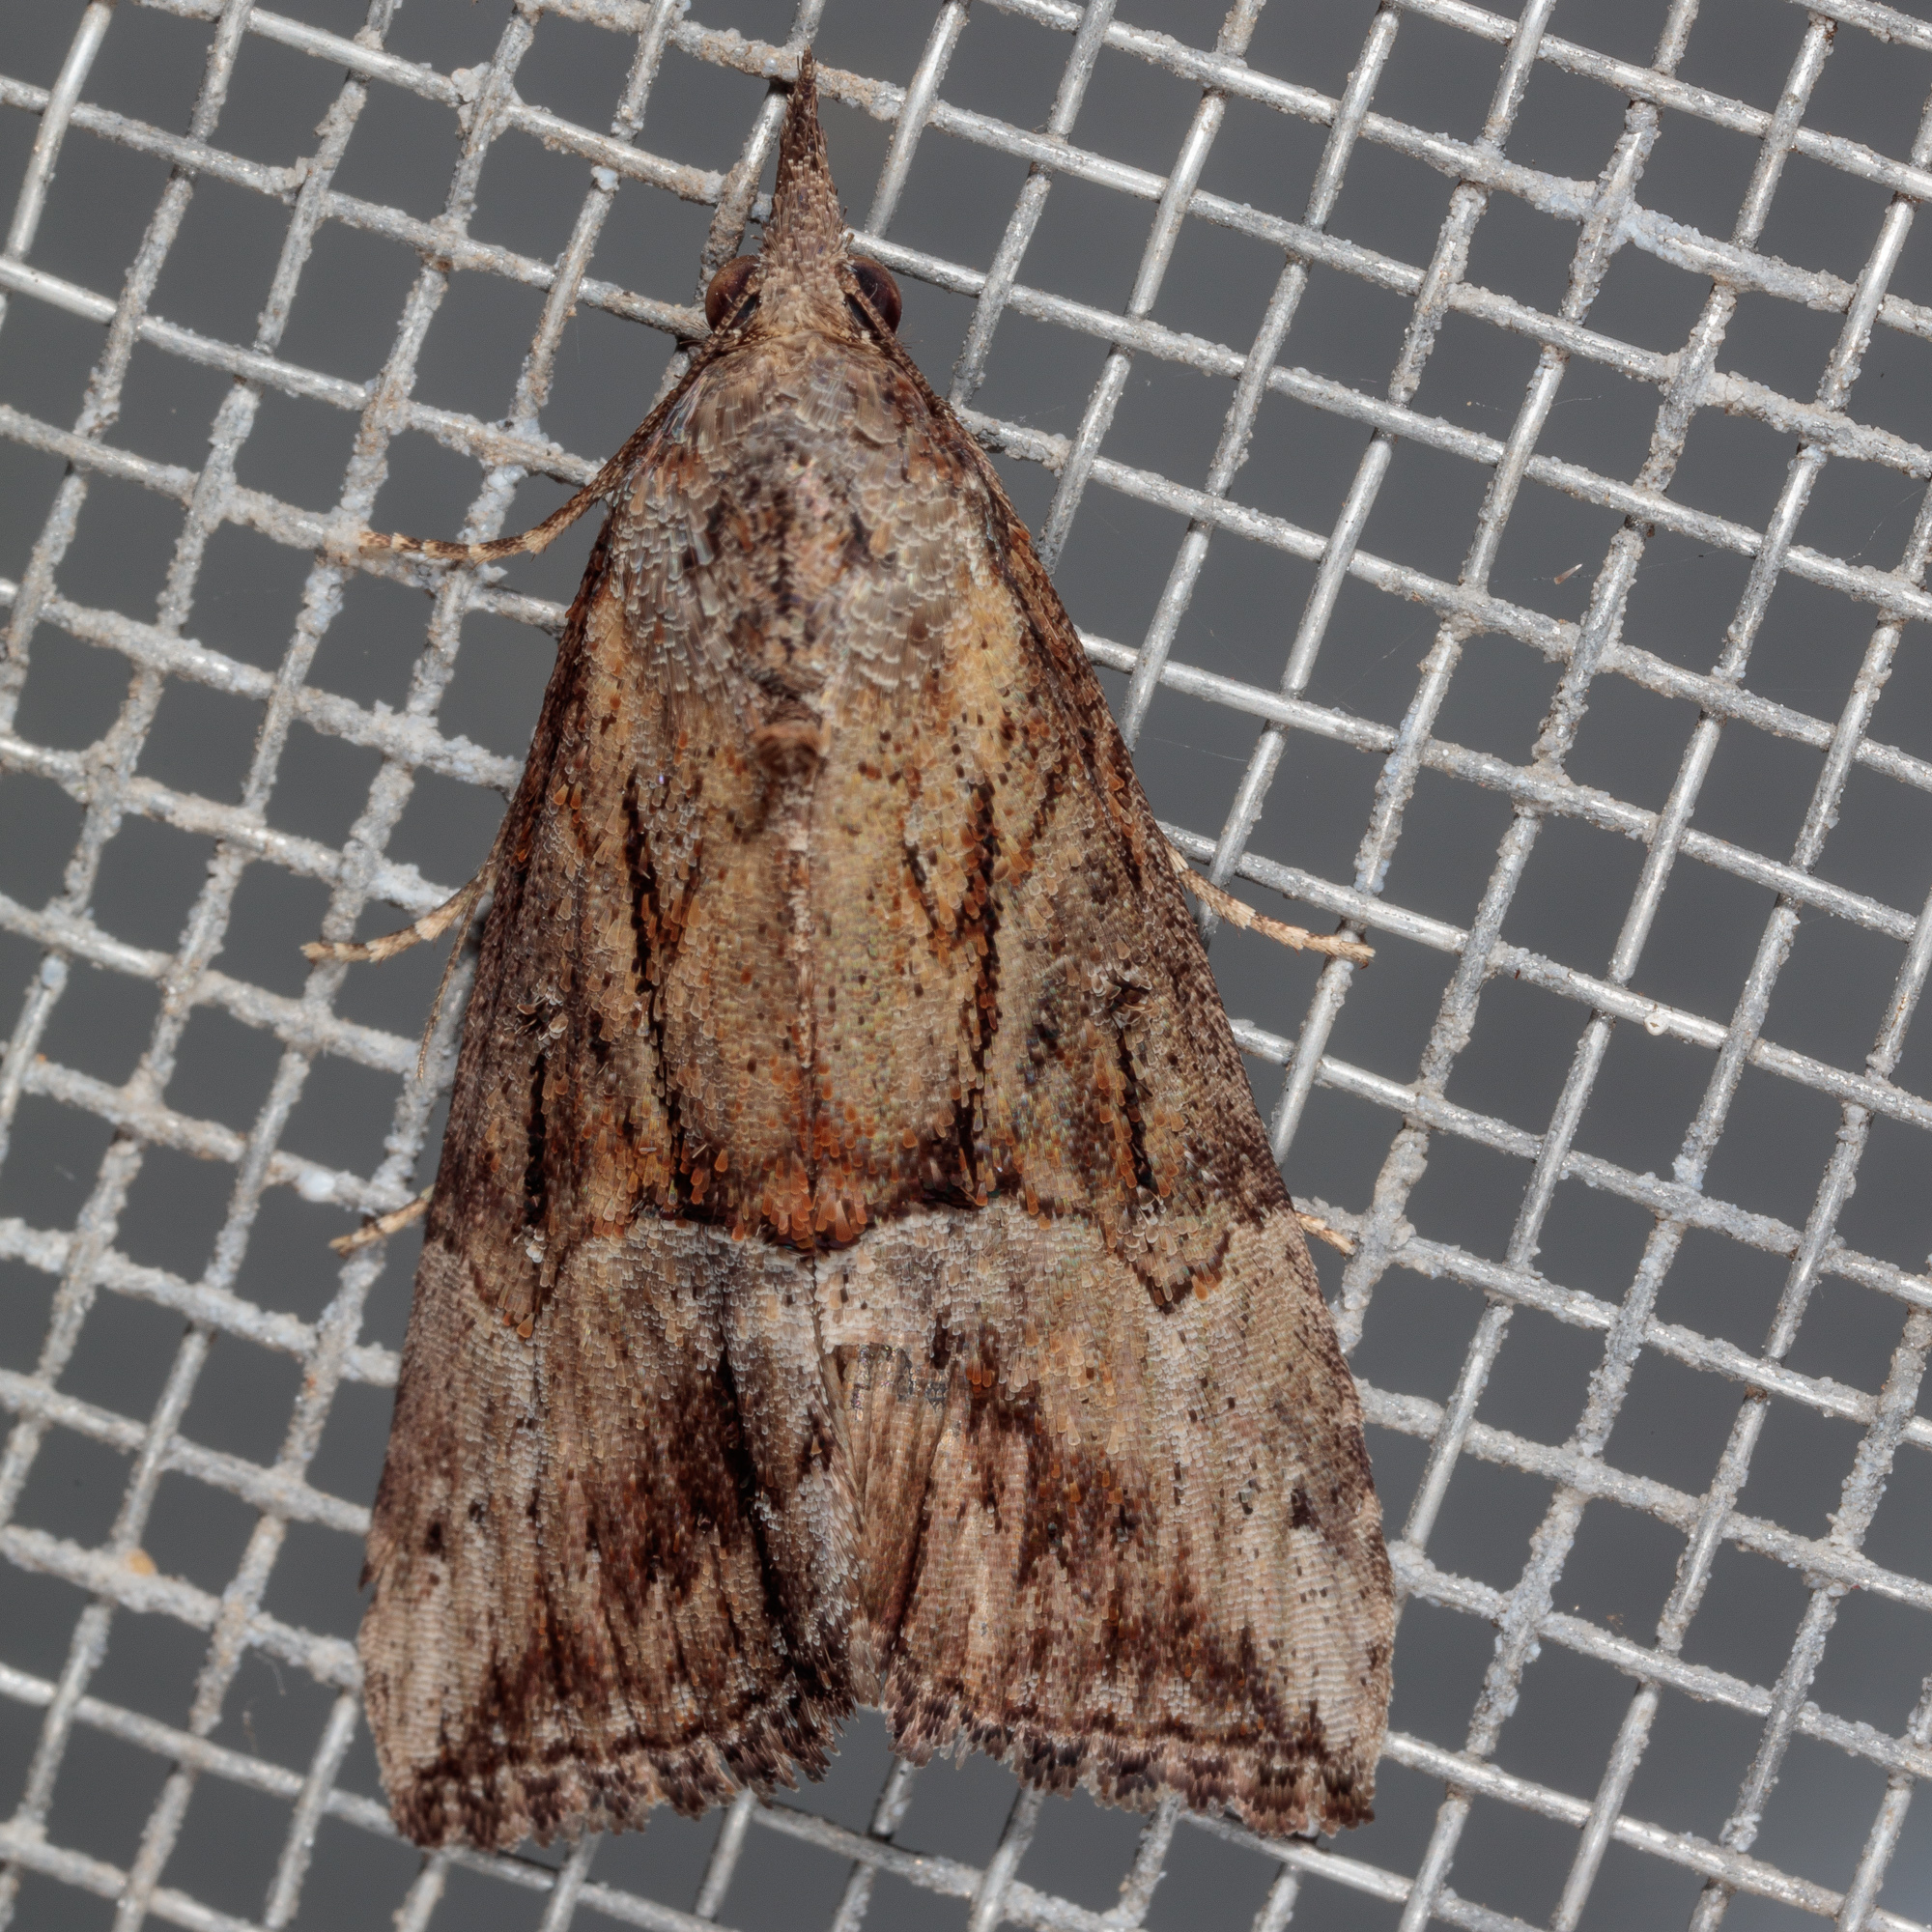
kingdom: Animalia
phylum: Arthropoda
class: Insecta
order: Lepidoptera
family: Erebidae
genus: Hypena
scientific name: Hypena scabra
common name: Green cloverworm
